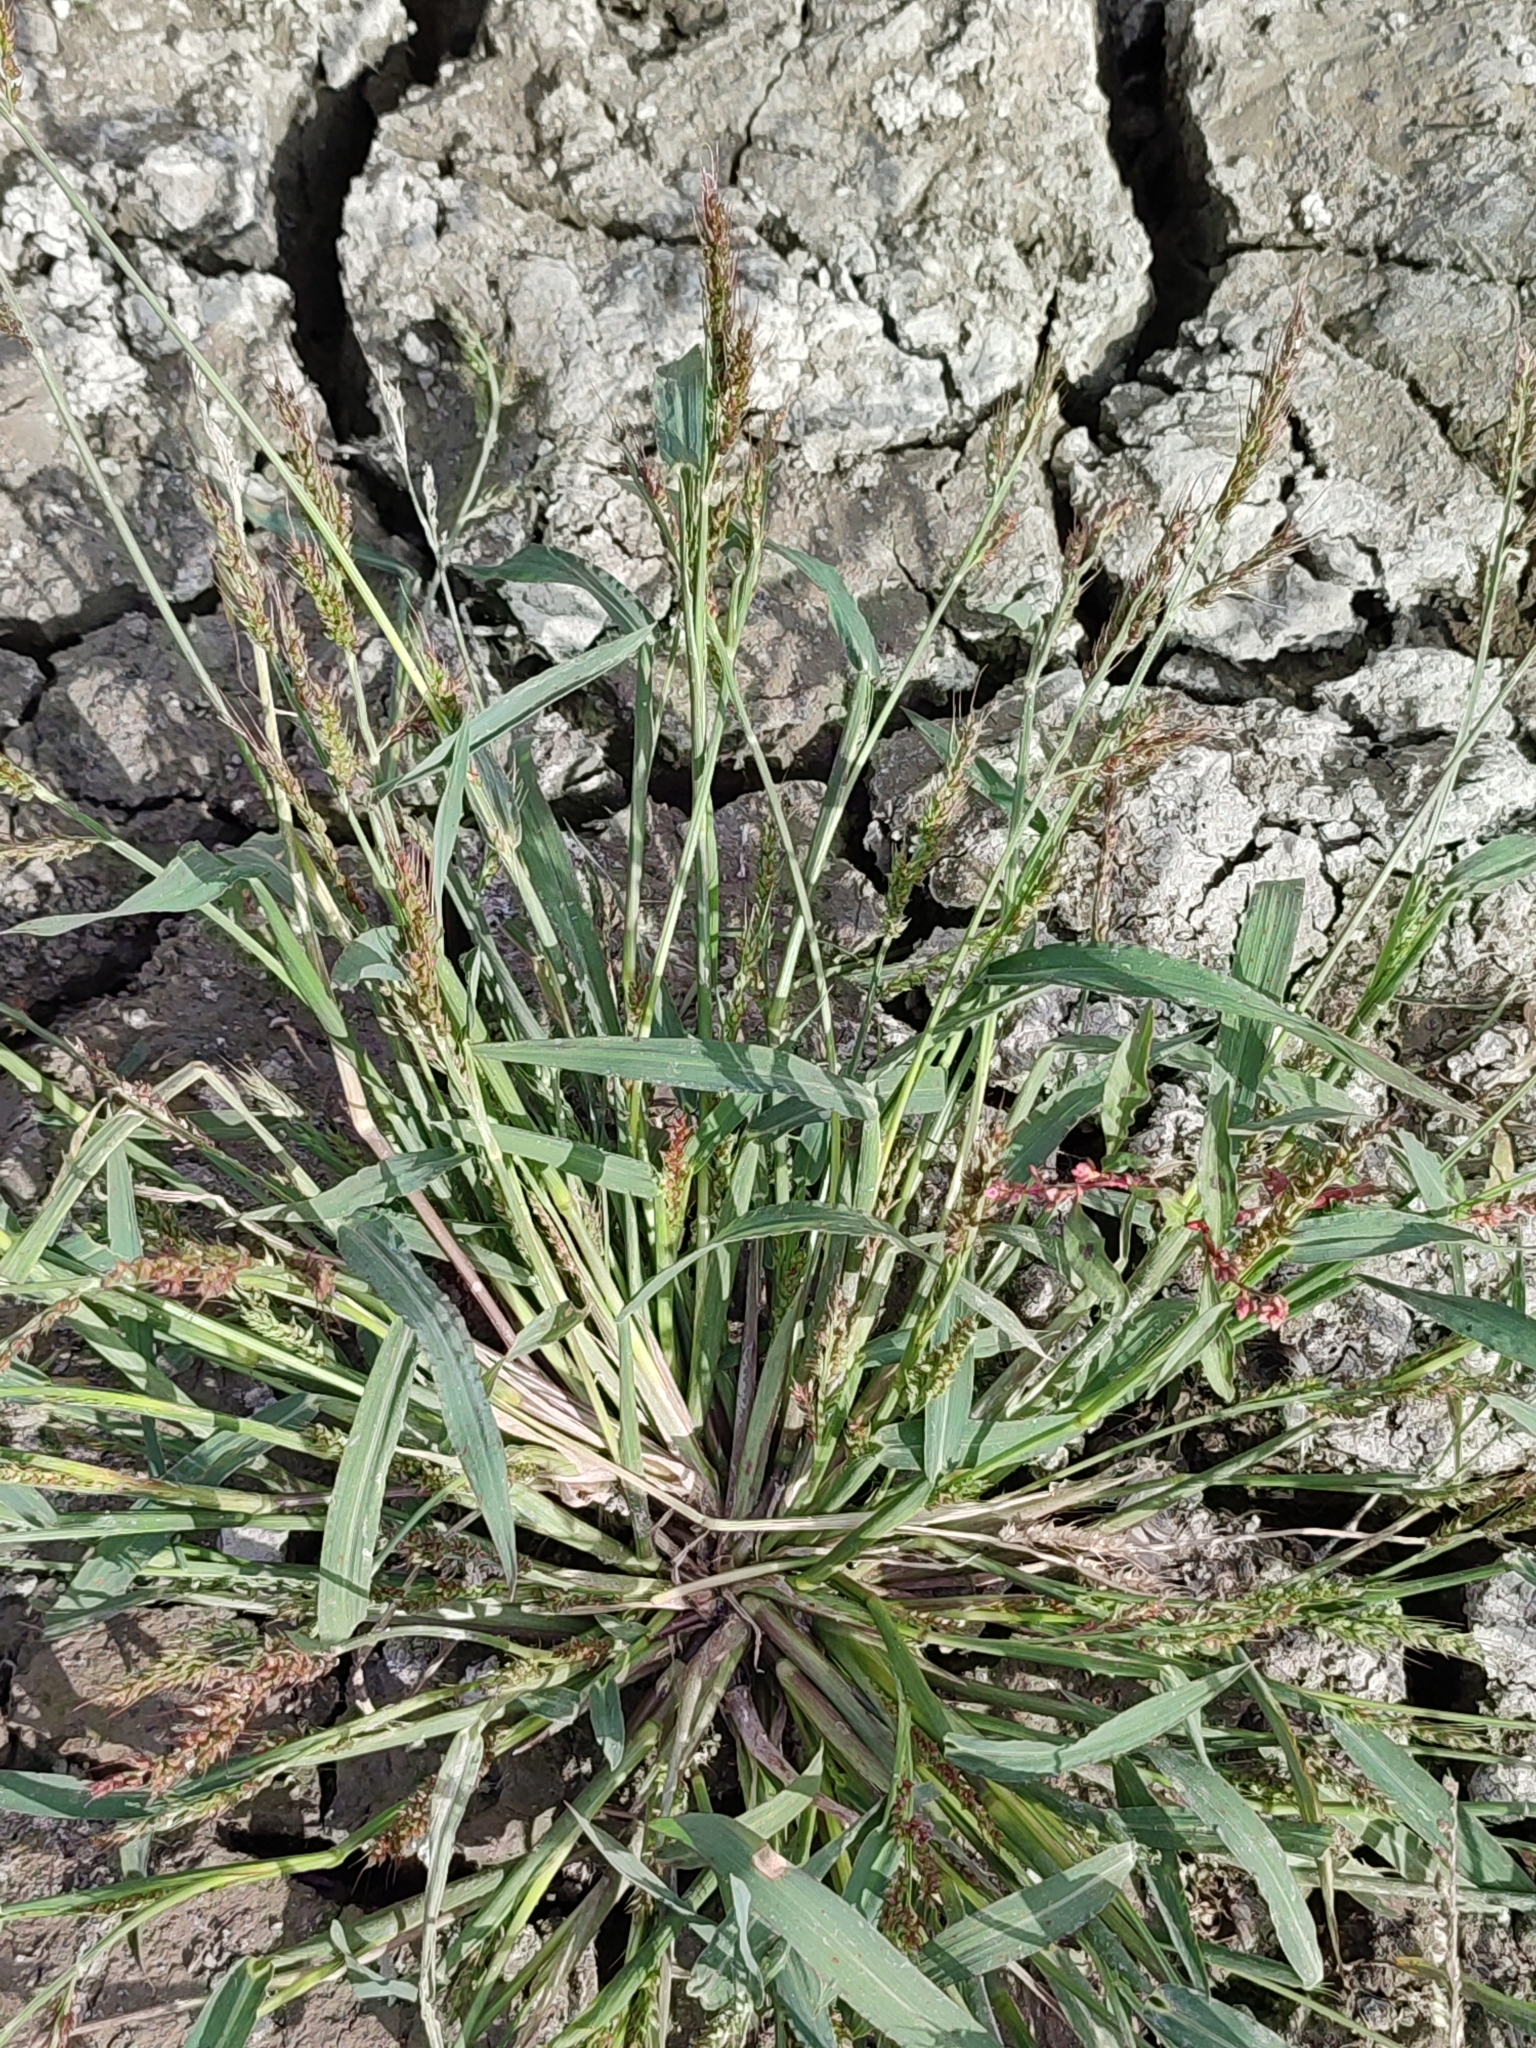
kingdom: Plantae
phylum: Tracheophyta
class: Liliopsida
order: Poales
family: Poaceae
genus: Echinochloa
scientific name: Echinochloa crus-galli
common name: Cockspur
